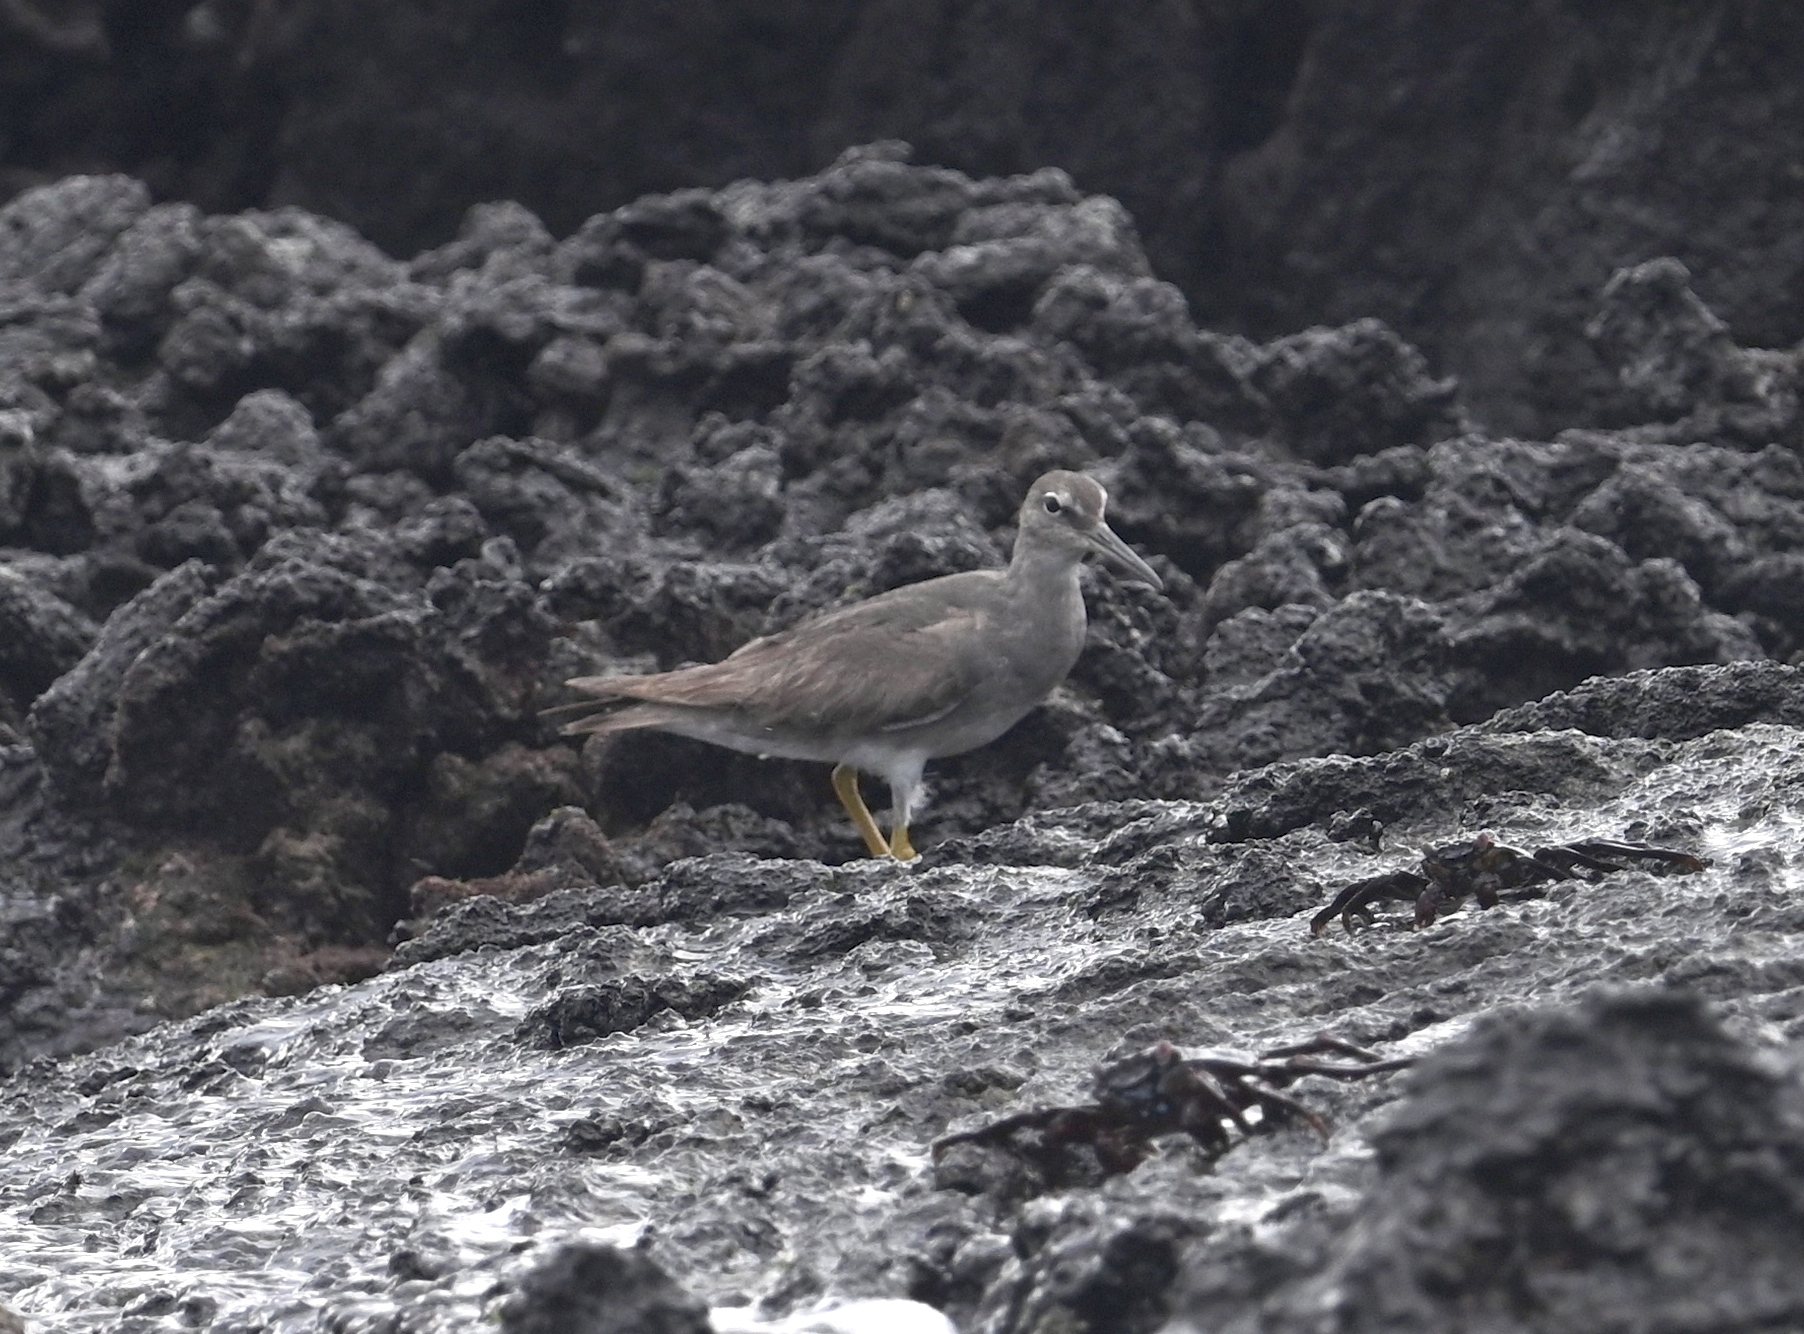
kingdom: Animalia
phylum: Chordata
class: Aves
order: Charadriiformes
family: Scolopacidae
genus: Tringa
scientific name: Tringa incana
